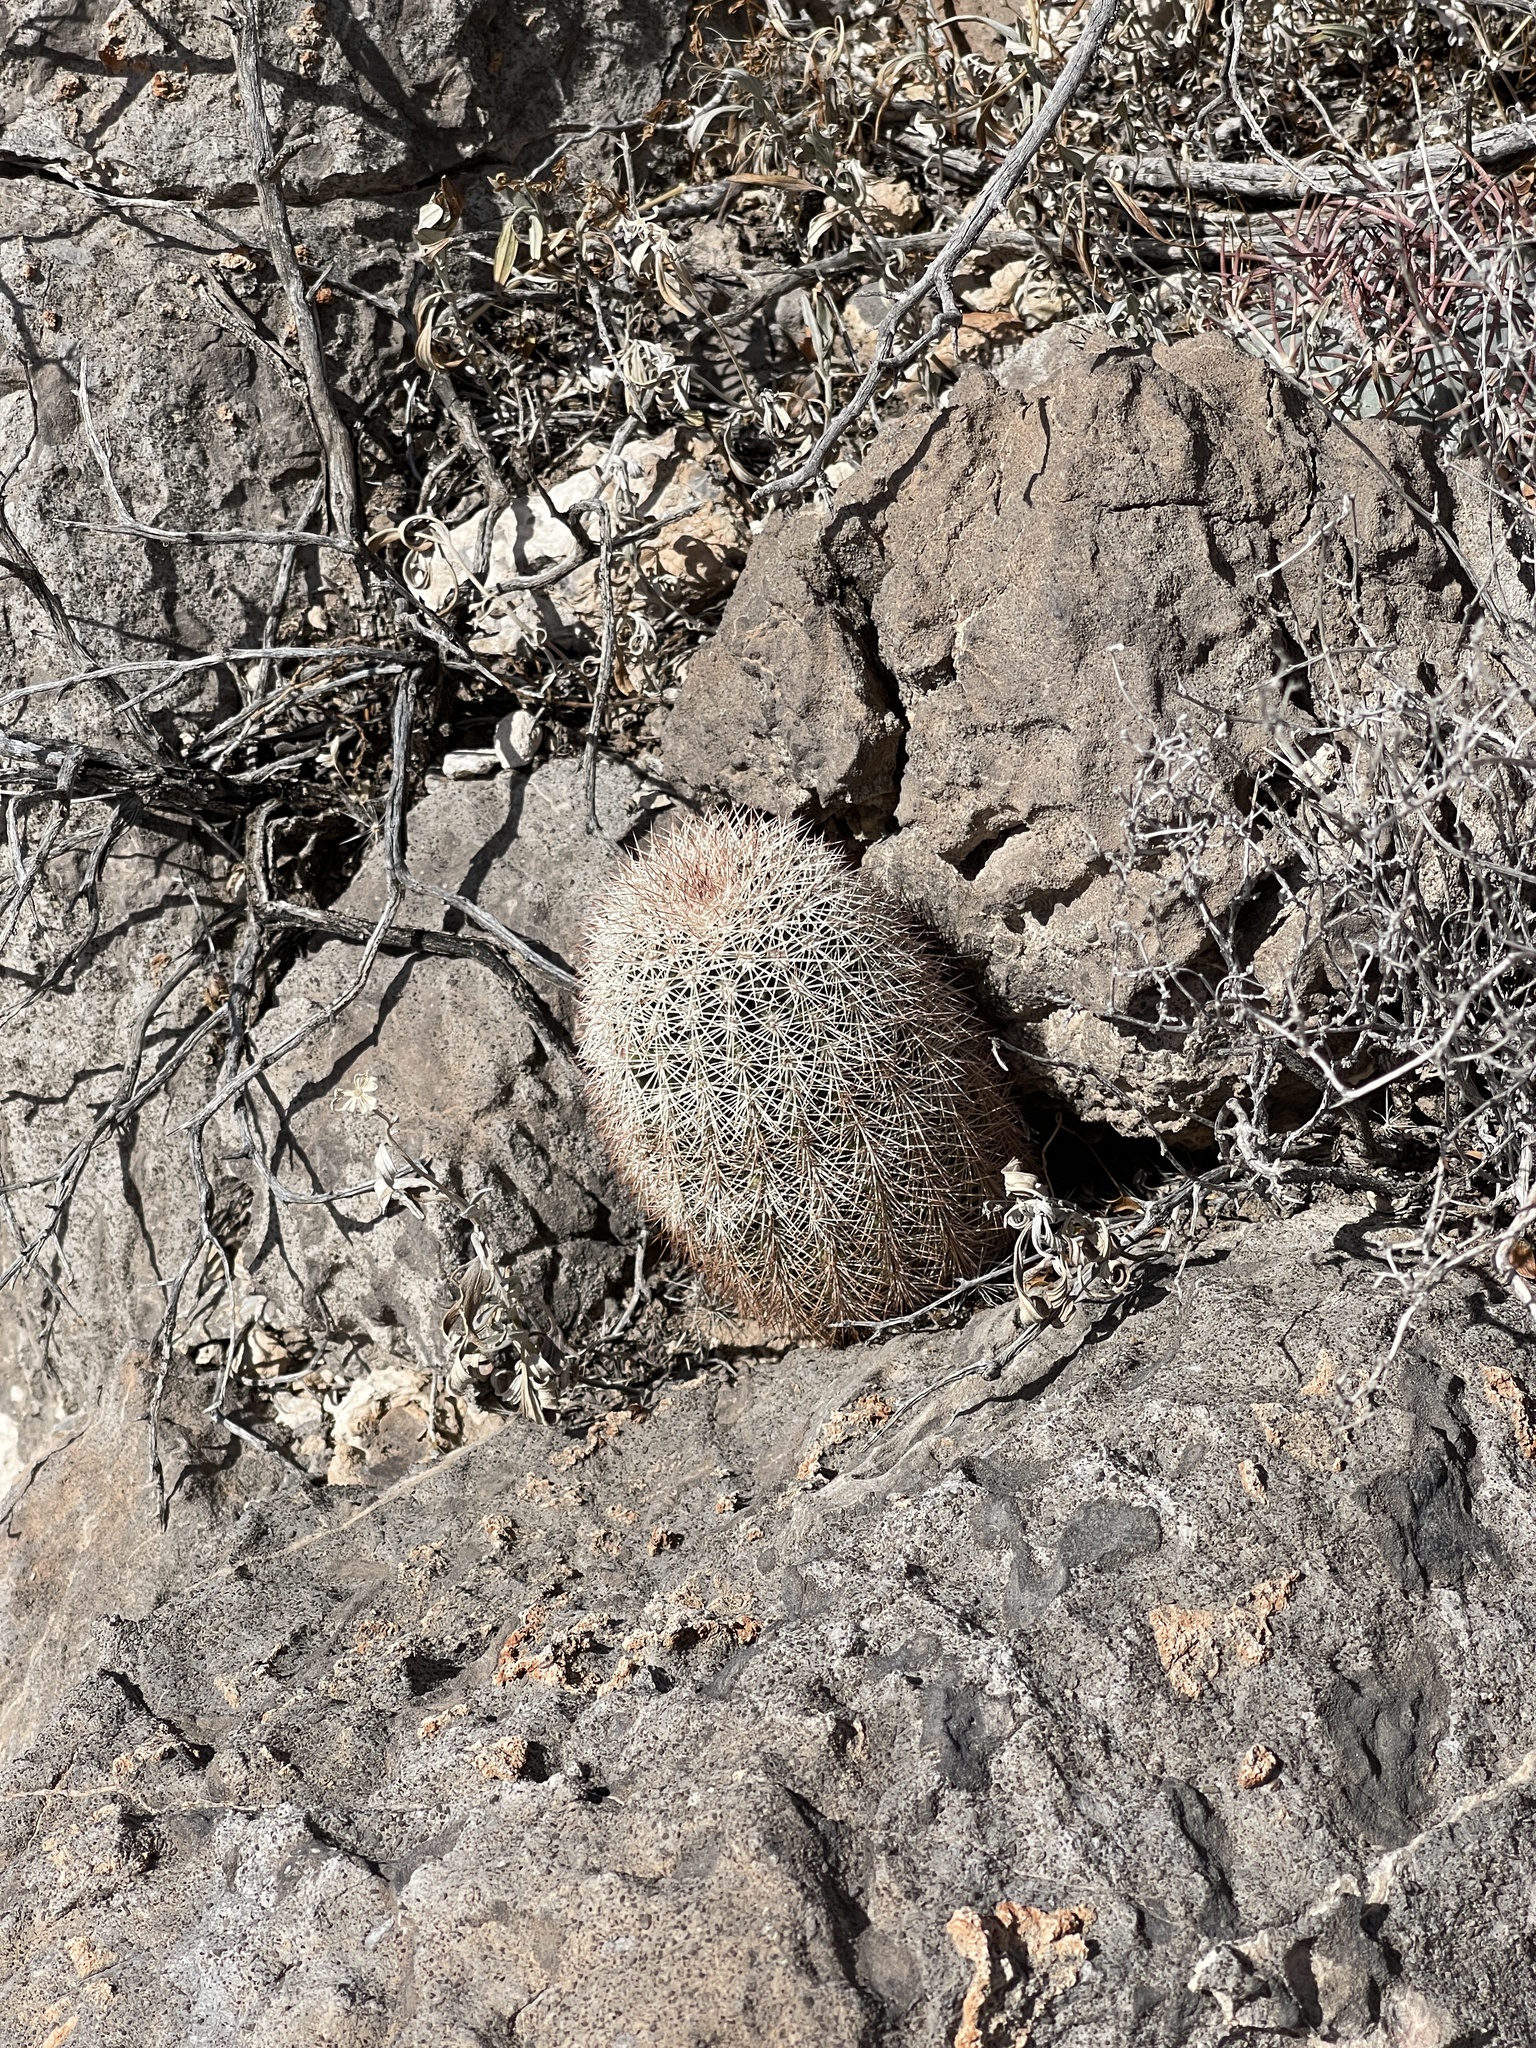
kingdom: Plantae
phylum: Tracheophyta
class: Magnoliopsida
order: Caryophyllales
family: Cactaceae
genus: Echinocereus
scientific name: Echinocereus dasyacanthus
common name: Spiny hedgehog cactus
